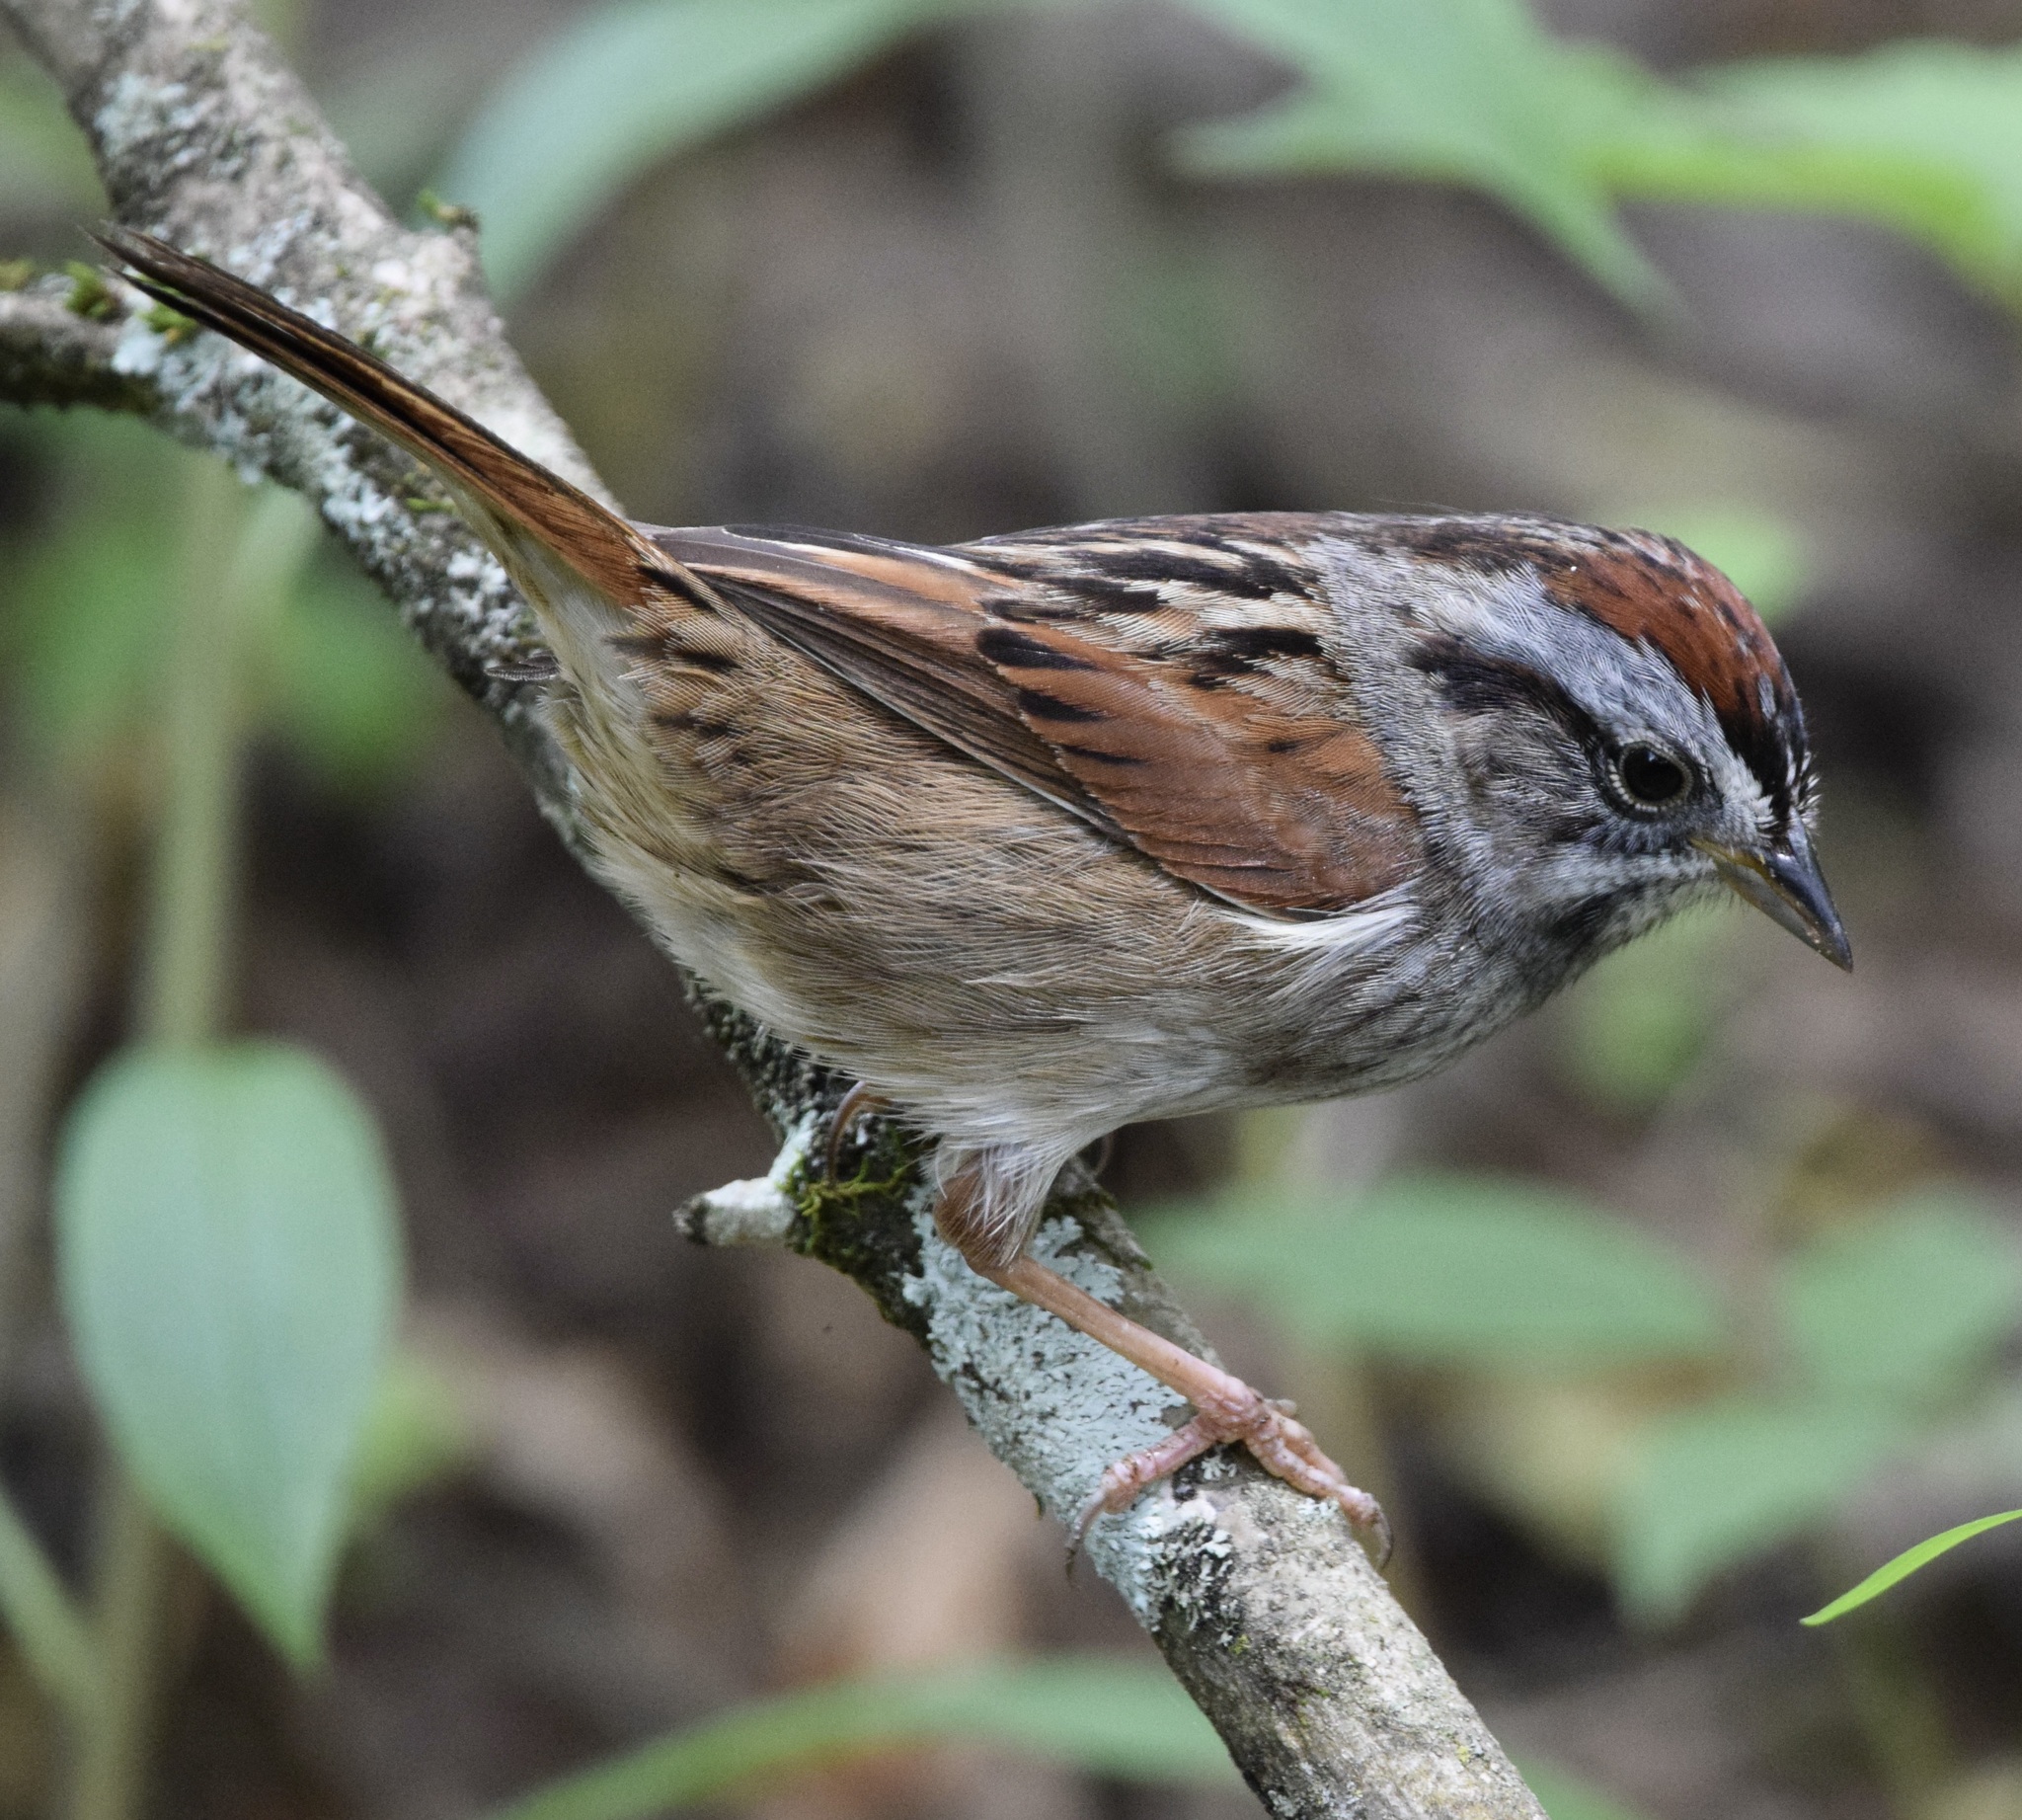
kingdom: Animalia
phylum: Chordata
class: Aves
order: Passeriformes
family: Passerellidae
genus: Melospiza
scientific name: Melospiza georgiana
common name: Swamp sparrow
